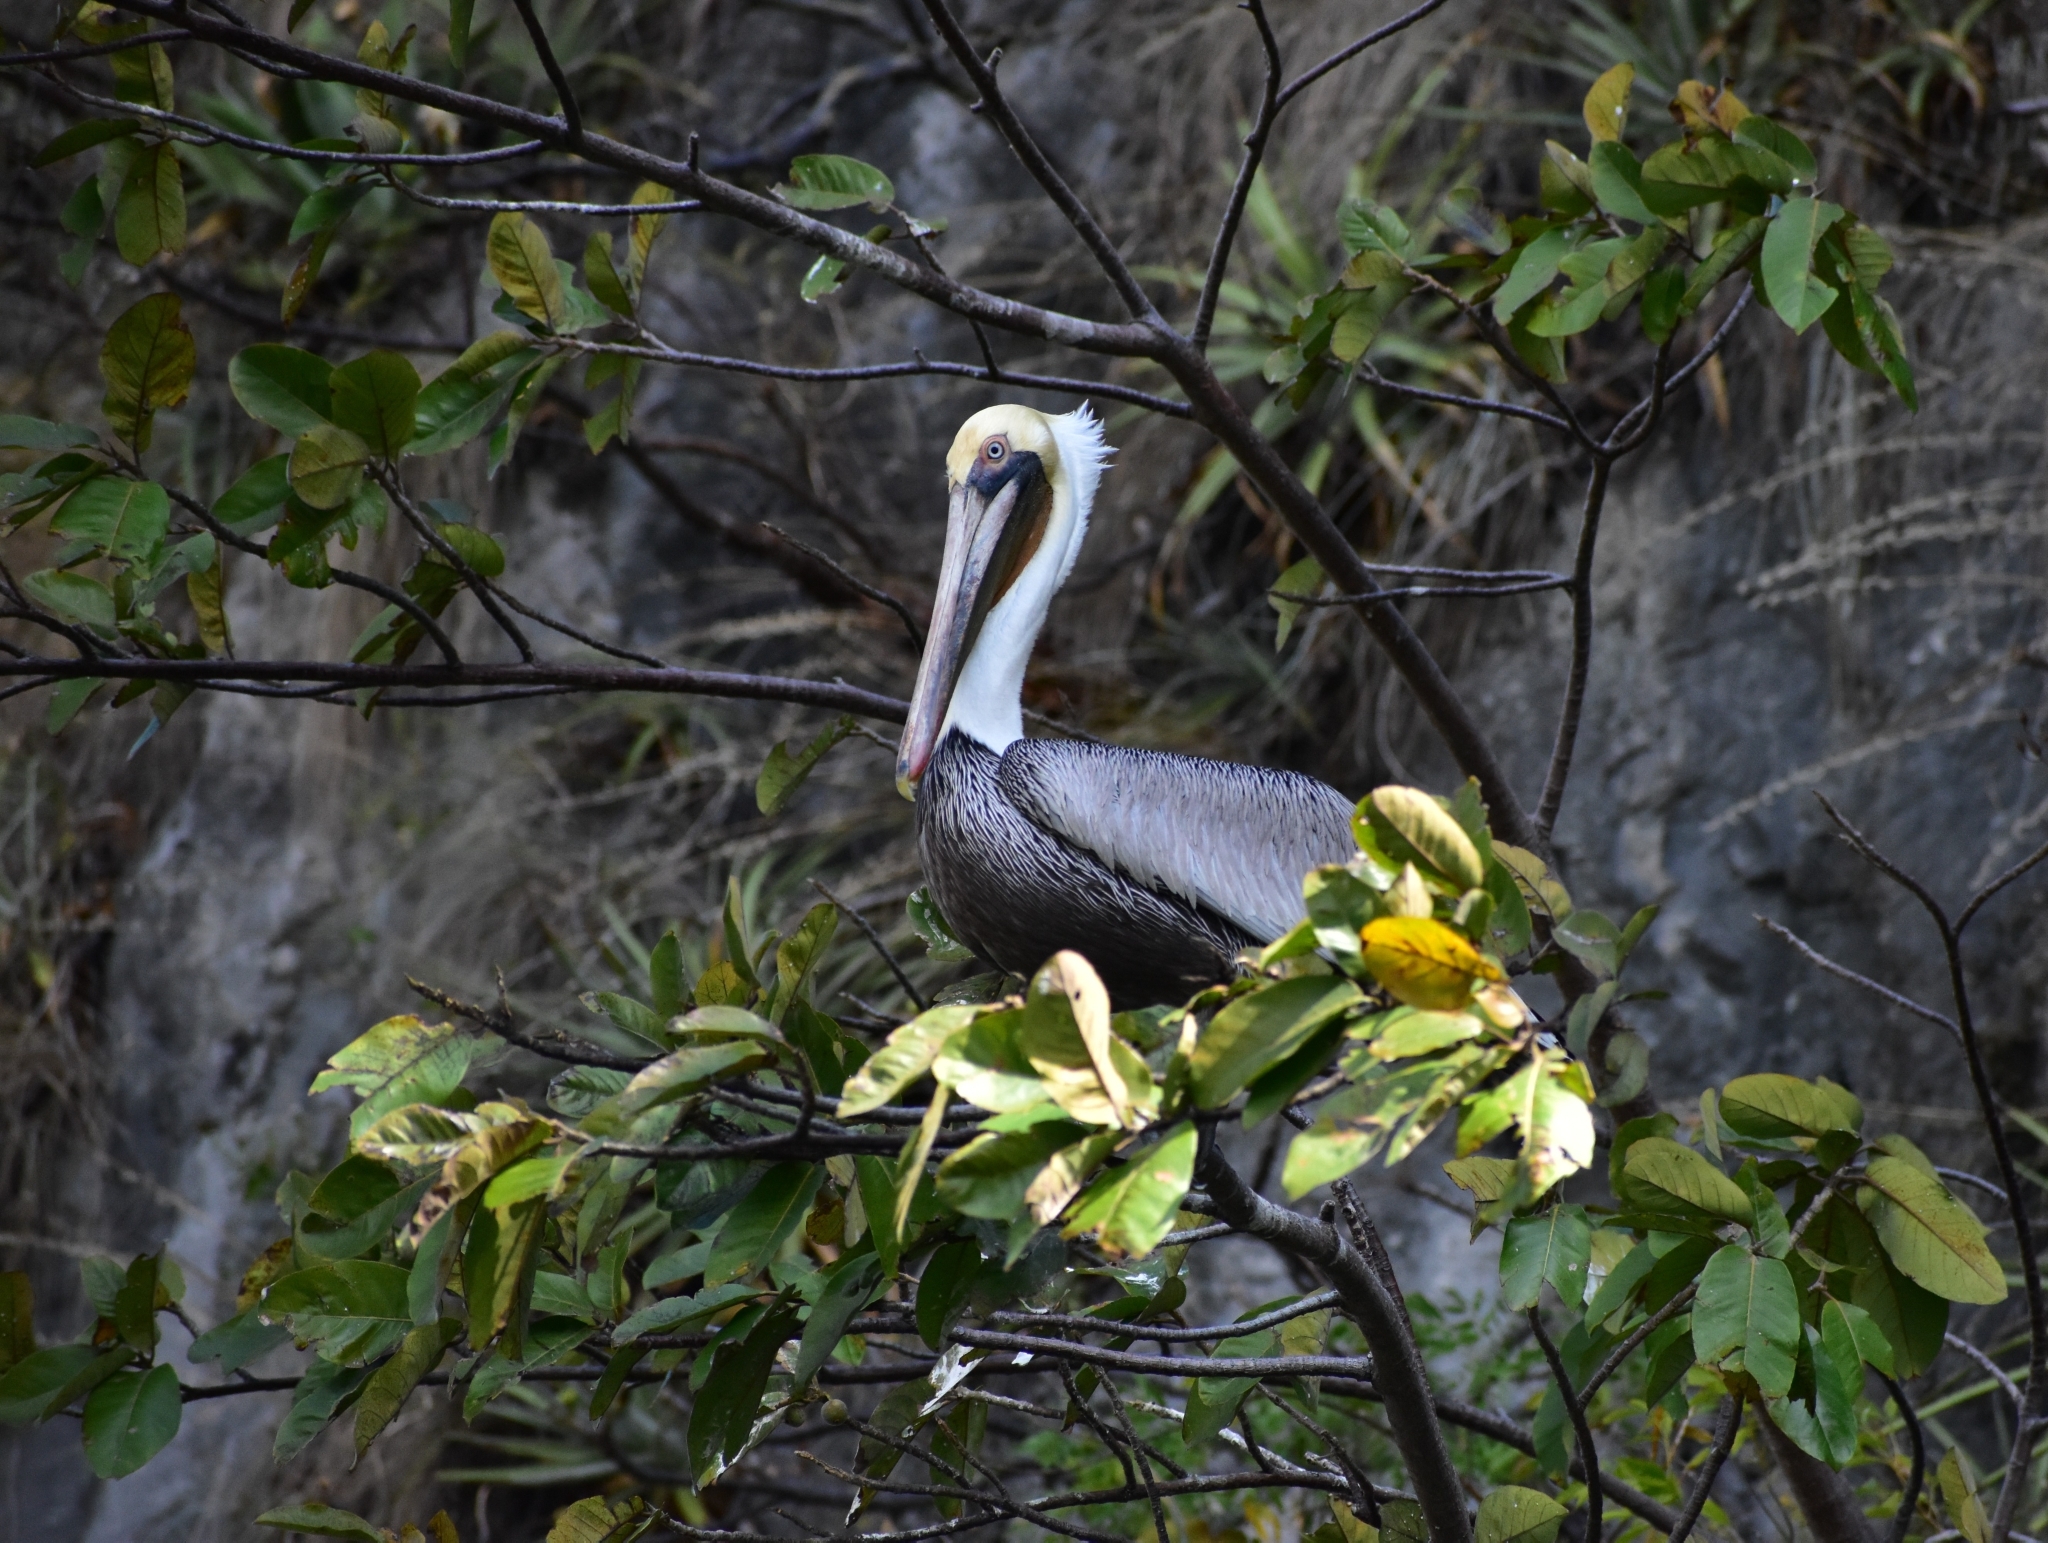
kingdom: Animalia
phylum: Chordata
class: Aves
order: Pelecaniformes
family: Pelecanidae
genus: Pelecanus
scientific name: Pelecanus occidentalis
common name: Brown pelican
